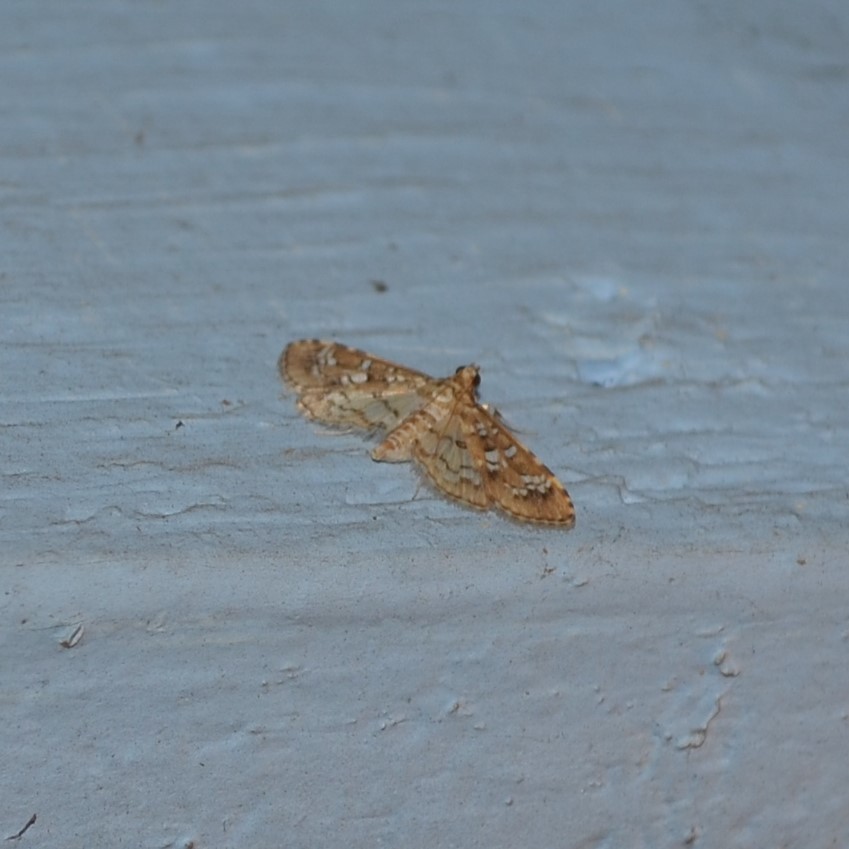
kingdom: Animalia
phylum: Arthropoda
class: Insecta
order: Lepidoptera
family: Crambidae
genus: Samea
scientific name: Samea multiplicalis
